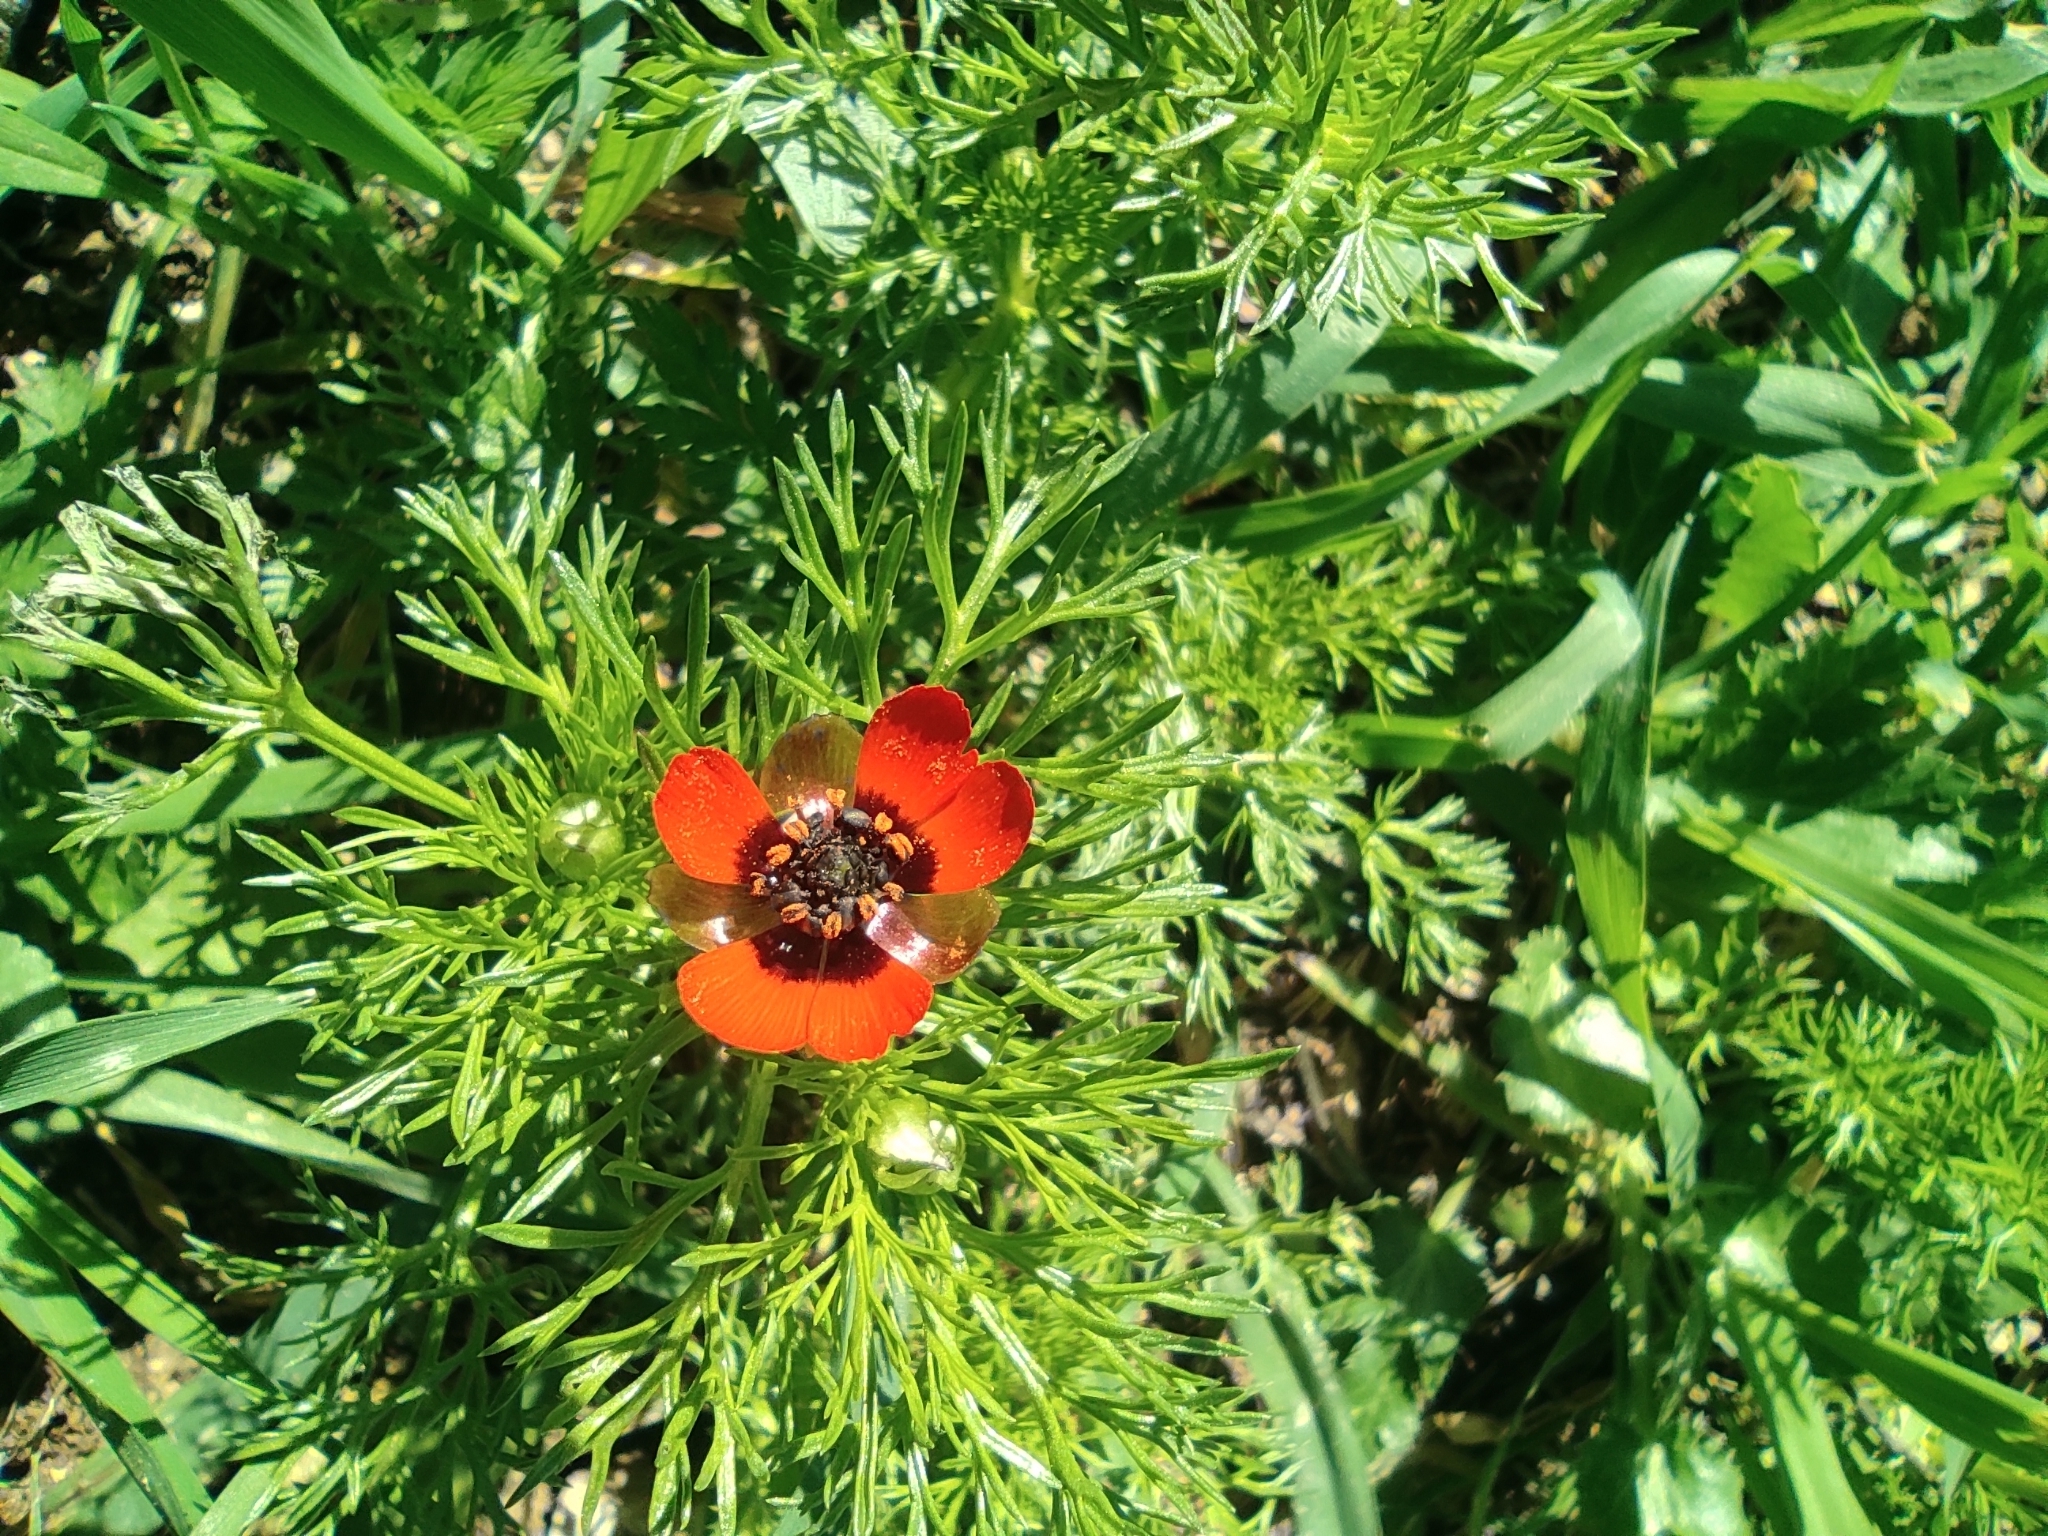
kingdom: Plantae
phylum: Tracheophyta
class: Magnoliopsida
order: Ranunculales
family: Ranunculaceae
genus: Adonis
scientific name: Adonis microcarpa
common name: Pheasant's-eye
